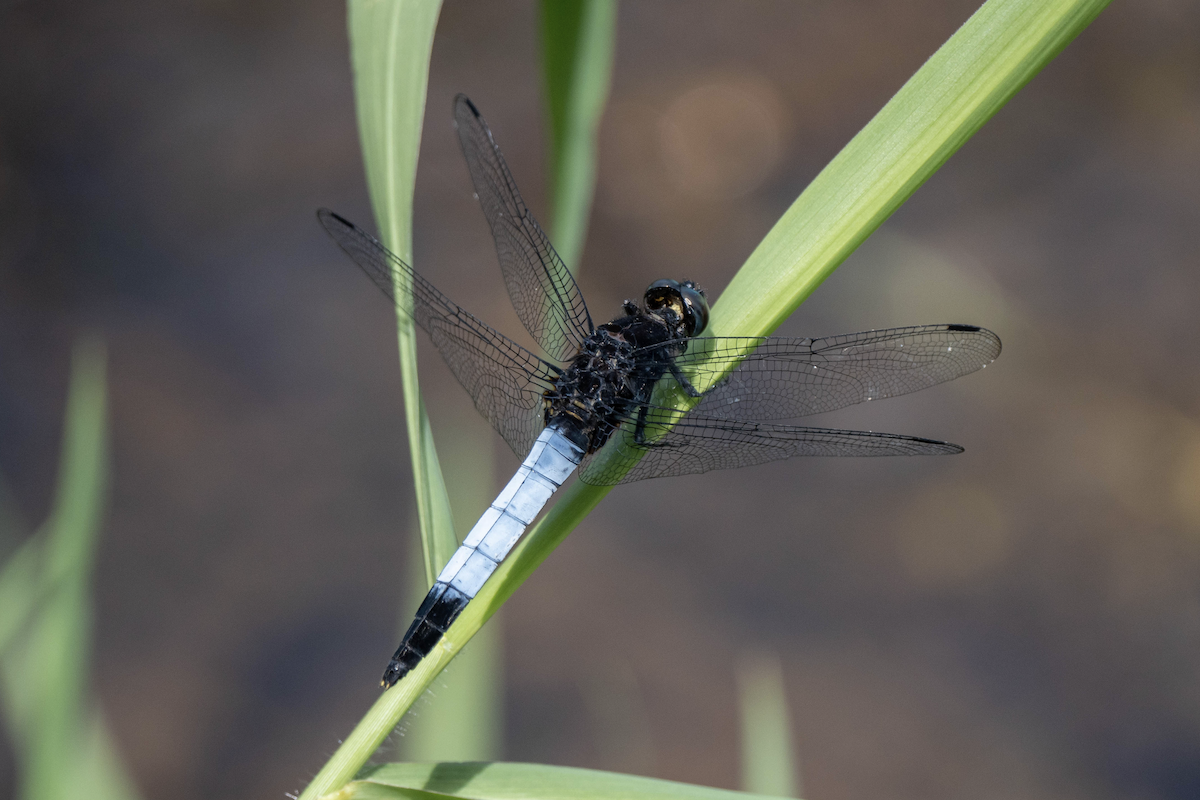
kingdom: Animalia
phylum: Arthropoda
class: Insecta
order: Odonata
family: Libellulidae
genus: Orthetrum
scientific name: Orthetrum triangulare
